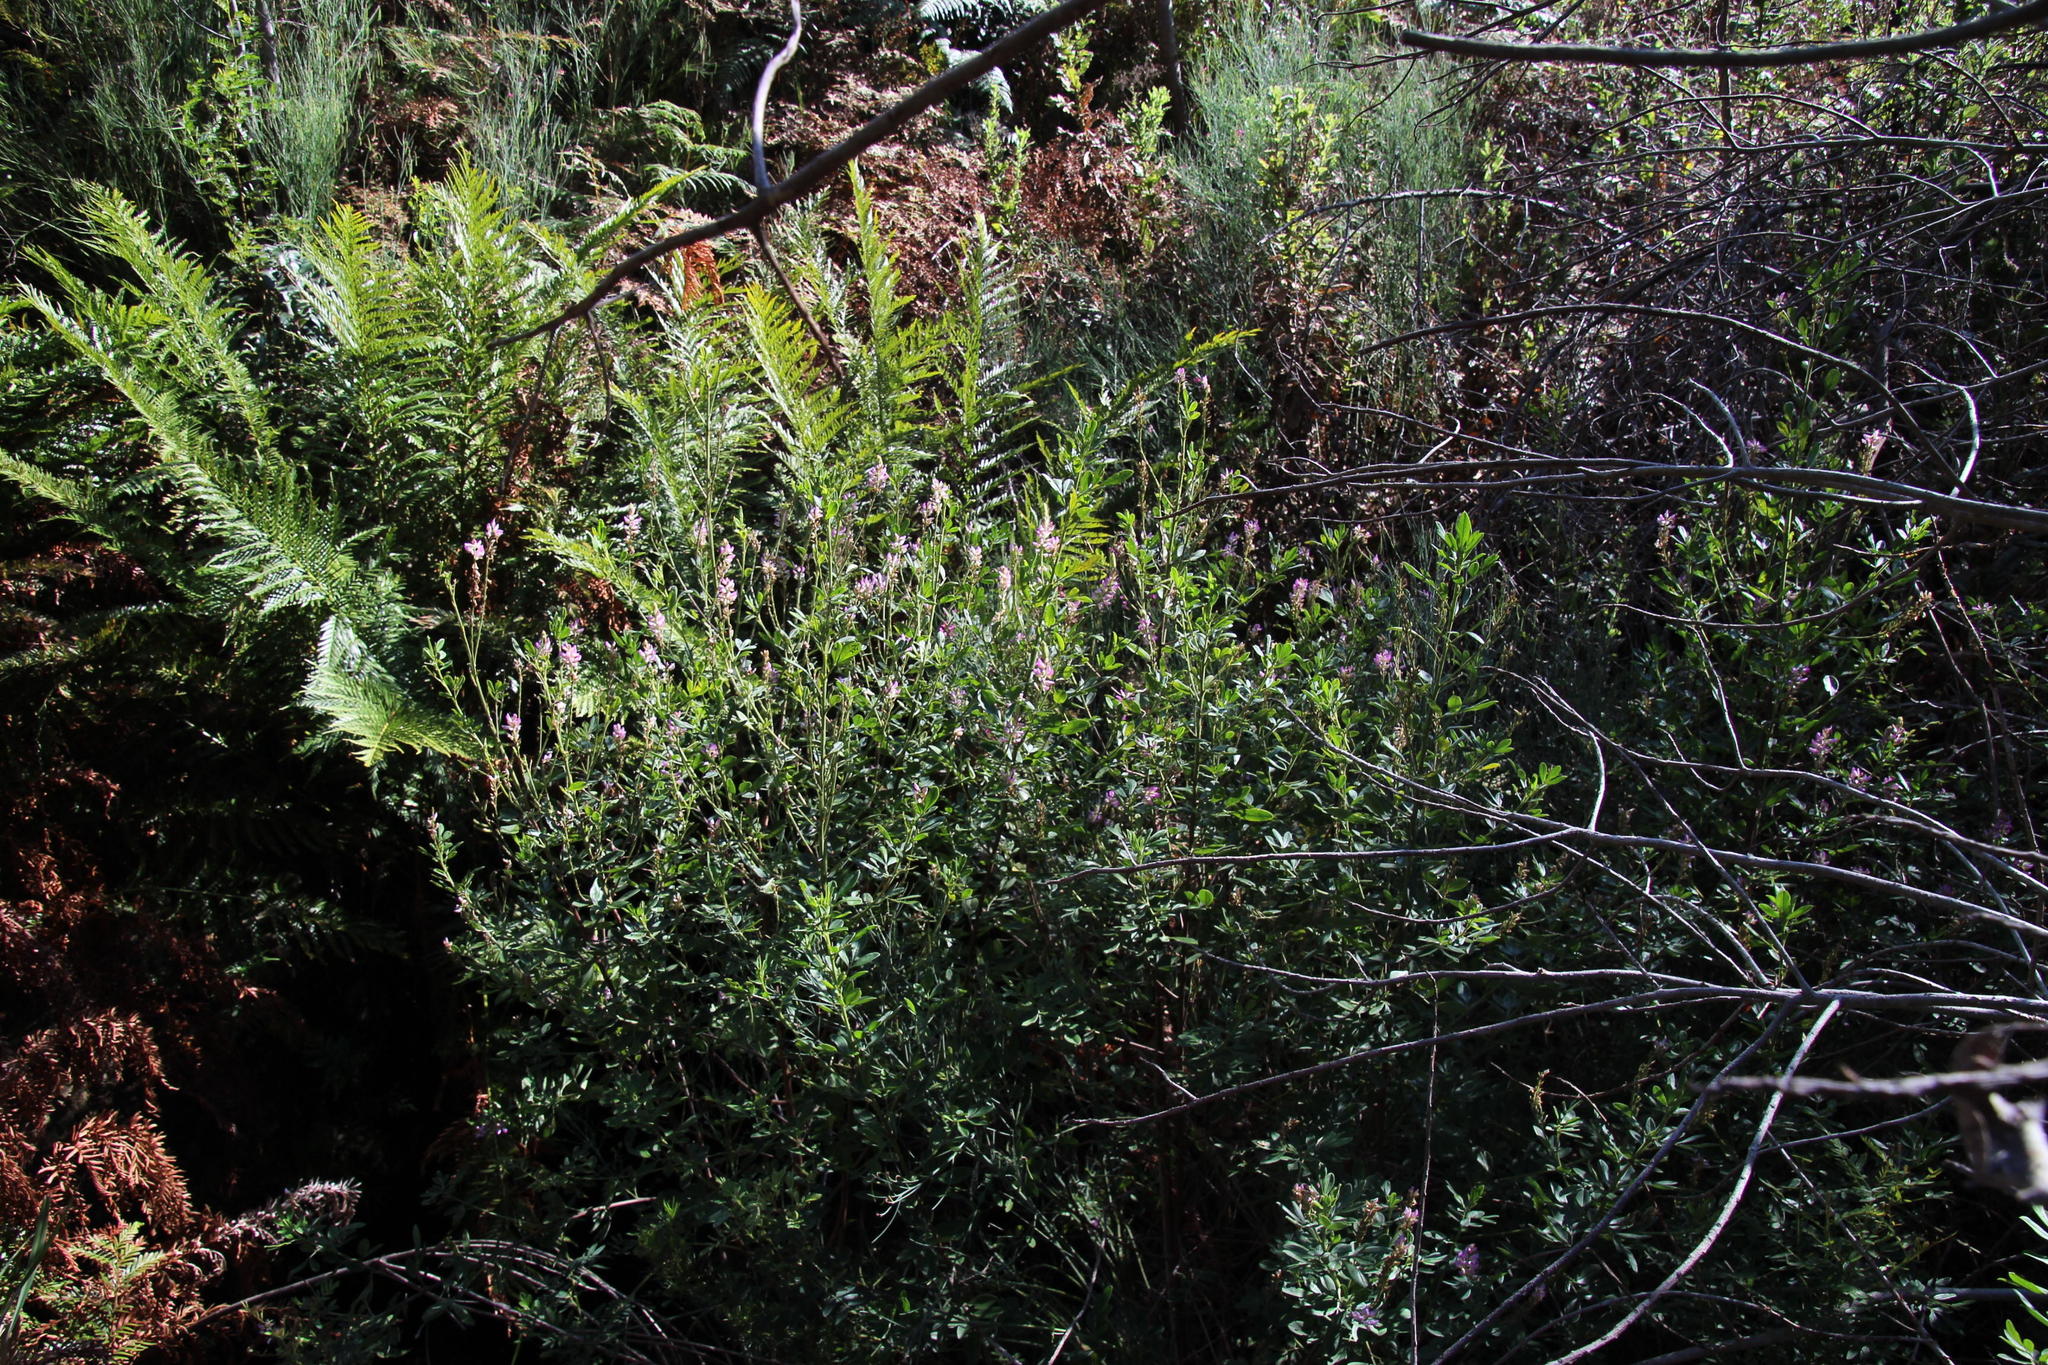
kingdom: Plantae
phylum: Tracheophyta
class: Magnoliopsida
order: Fabales
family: Fabaceae
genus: Indigofera
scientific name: Indigofera cytisoides
